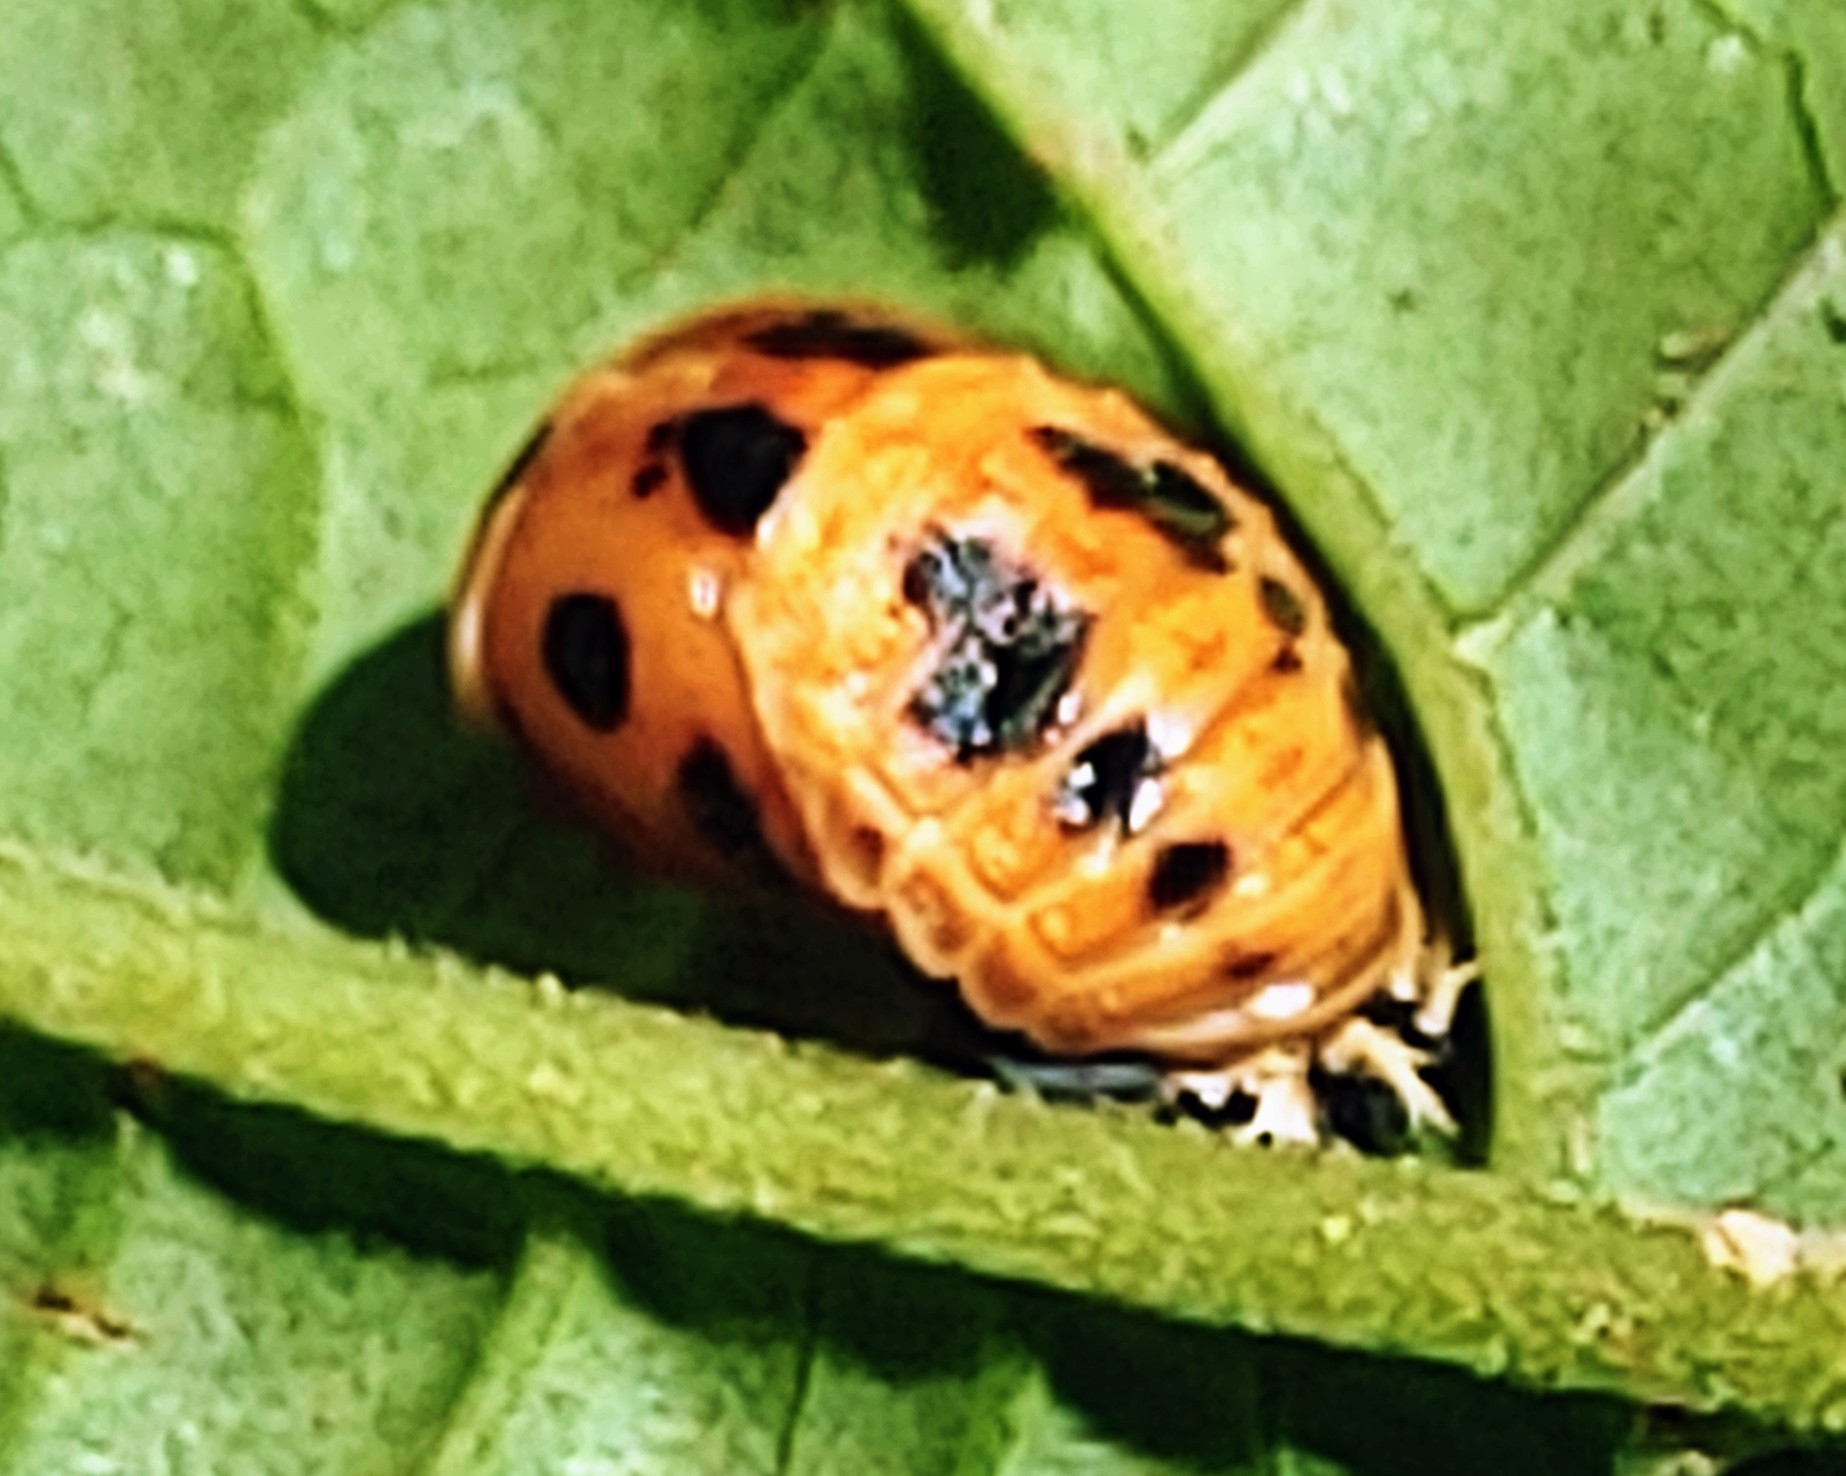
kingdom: Animalia
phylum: Arthropoda
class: Insecta
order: Coleoptera
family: Coccinellidae
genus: Harmonia
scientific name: Harmonia axyridis
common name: Harlequin ladybird
